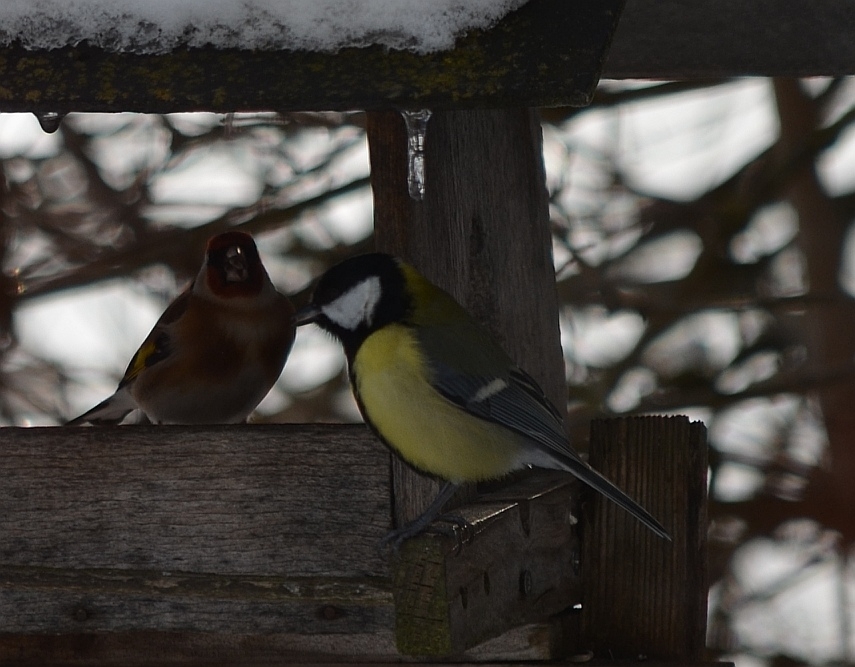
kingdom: Animalia
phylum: Chordata
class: Aves
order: Passeriformes
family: Paridae
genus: Parus
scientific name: Parus major
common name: Great tit
